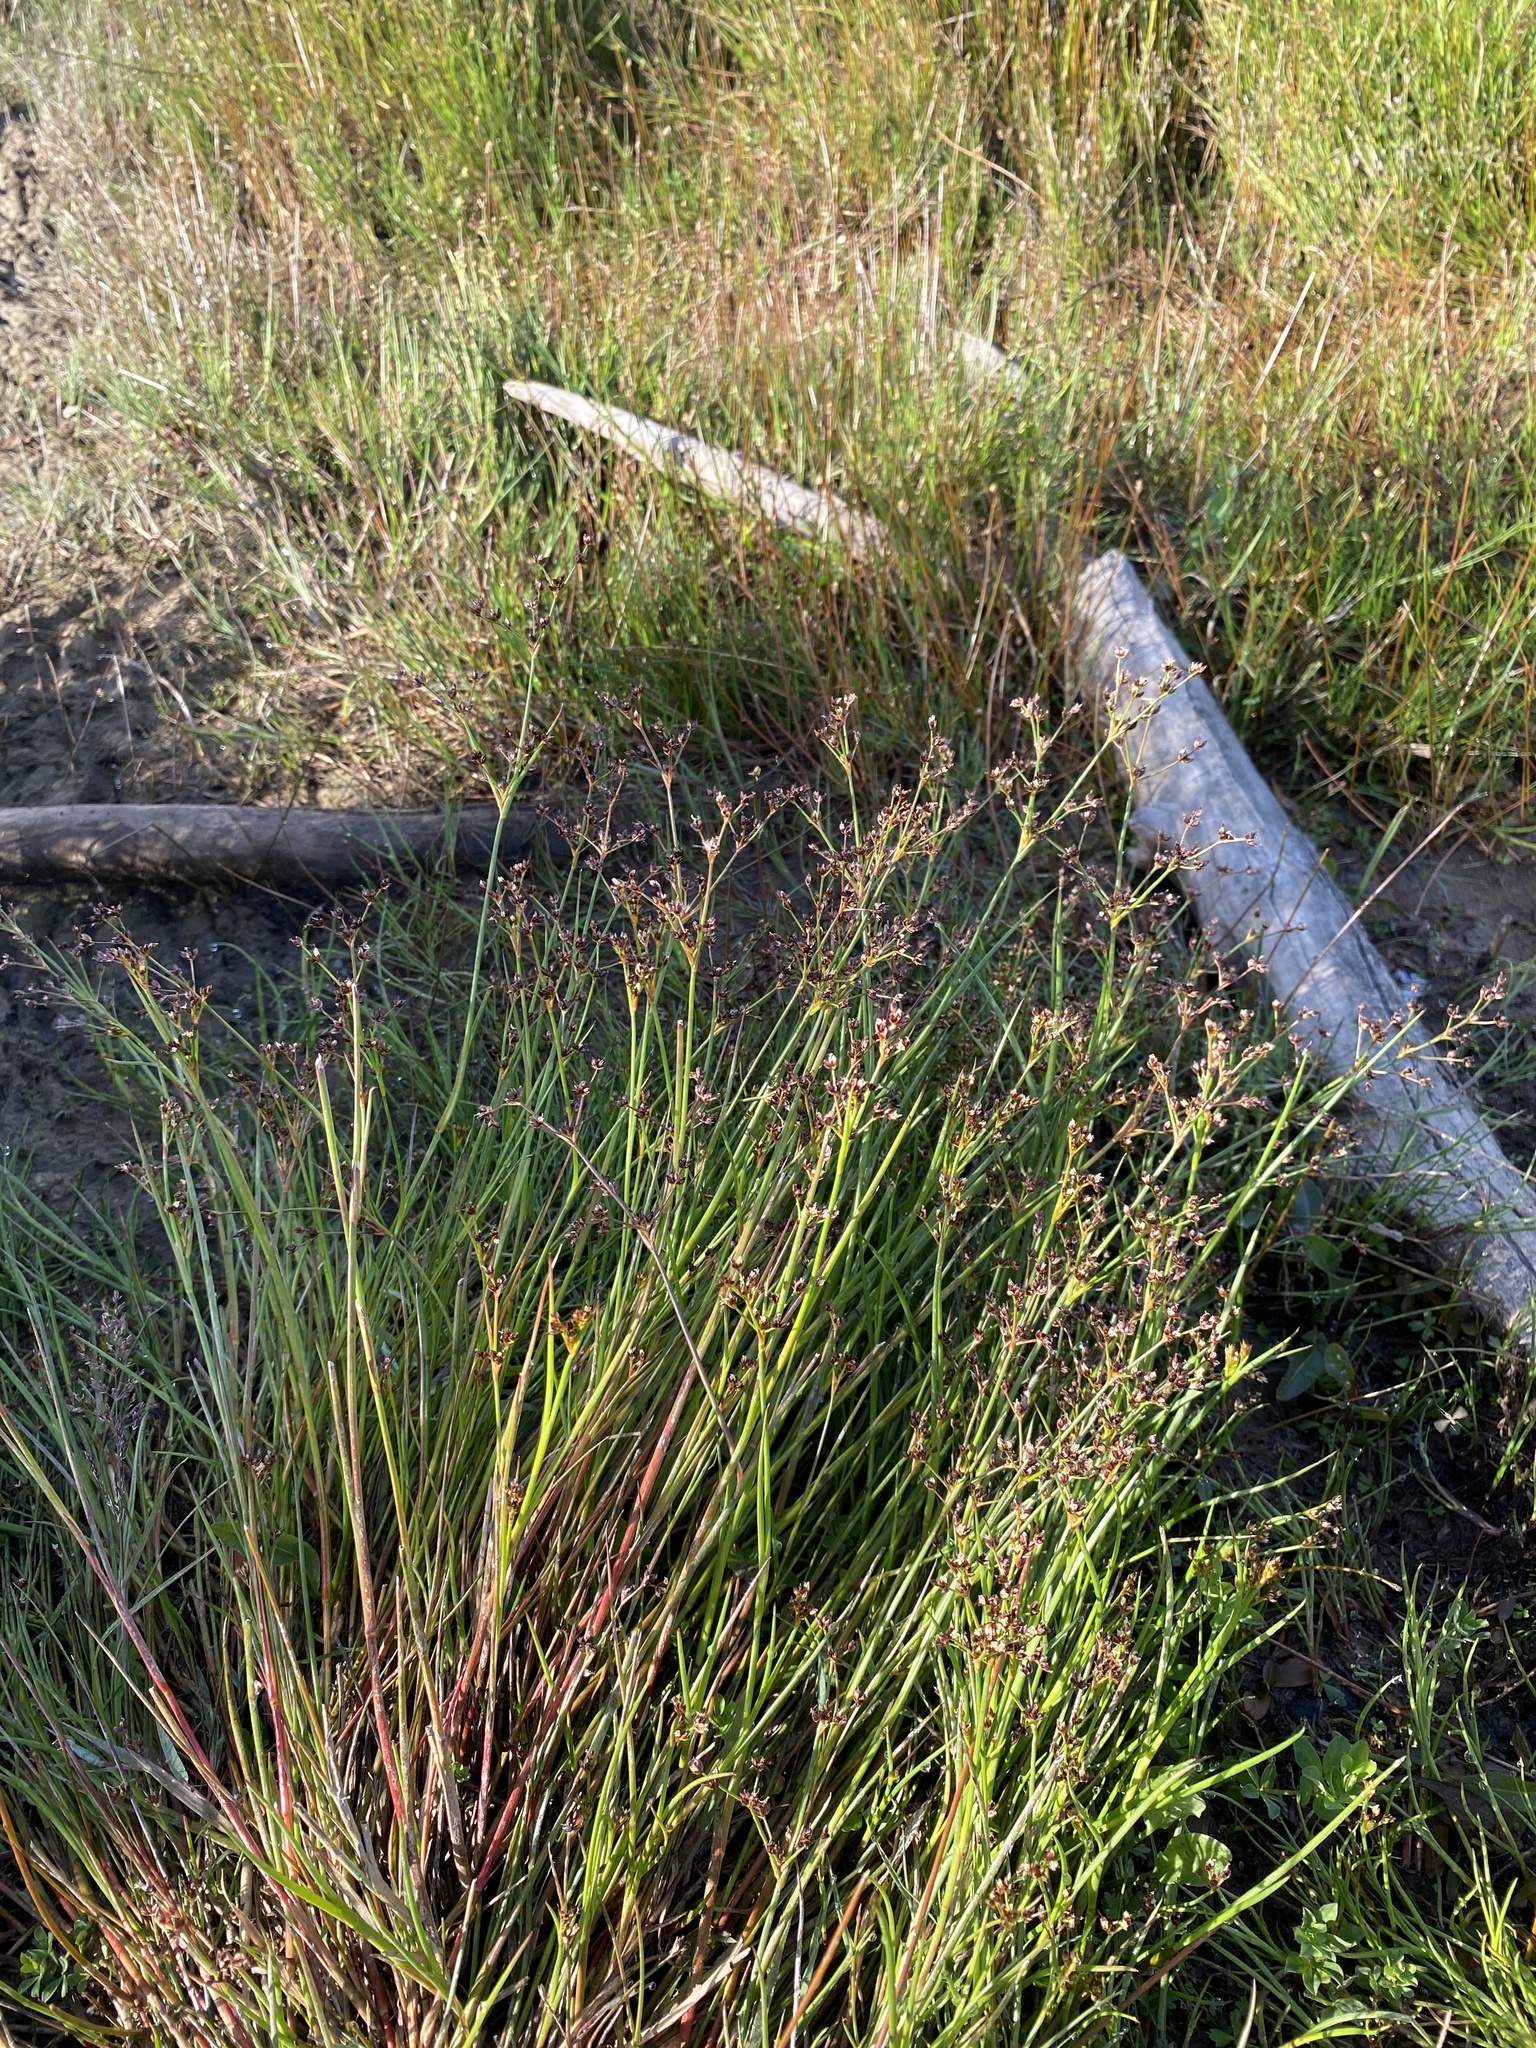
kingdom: Plantae
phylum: Tracheophyta
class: Liliopsida
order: Poales
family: Juncaceae
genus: Juncus
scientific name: Juncus articulatus
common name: Jointed rush
